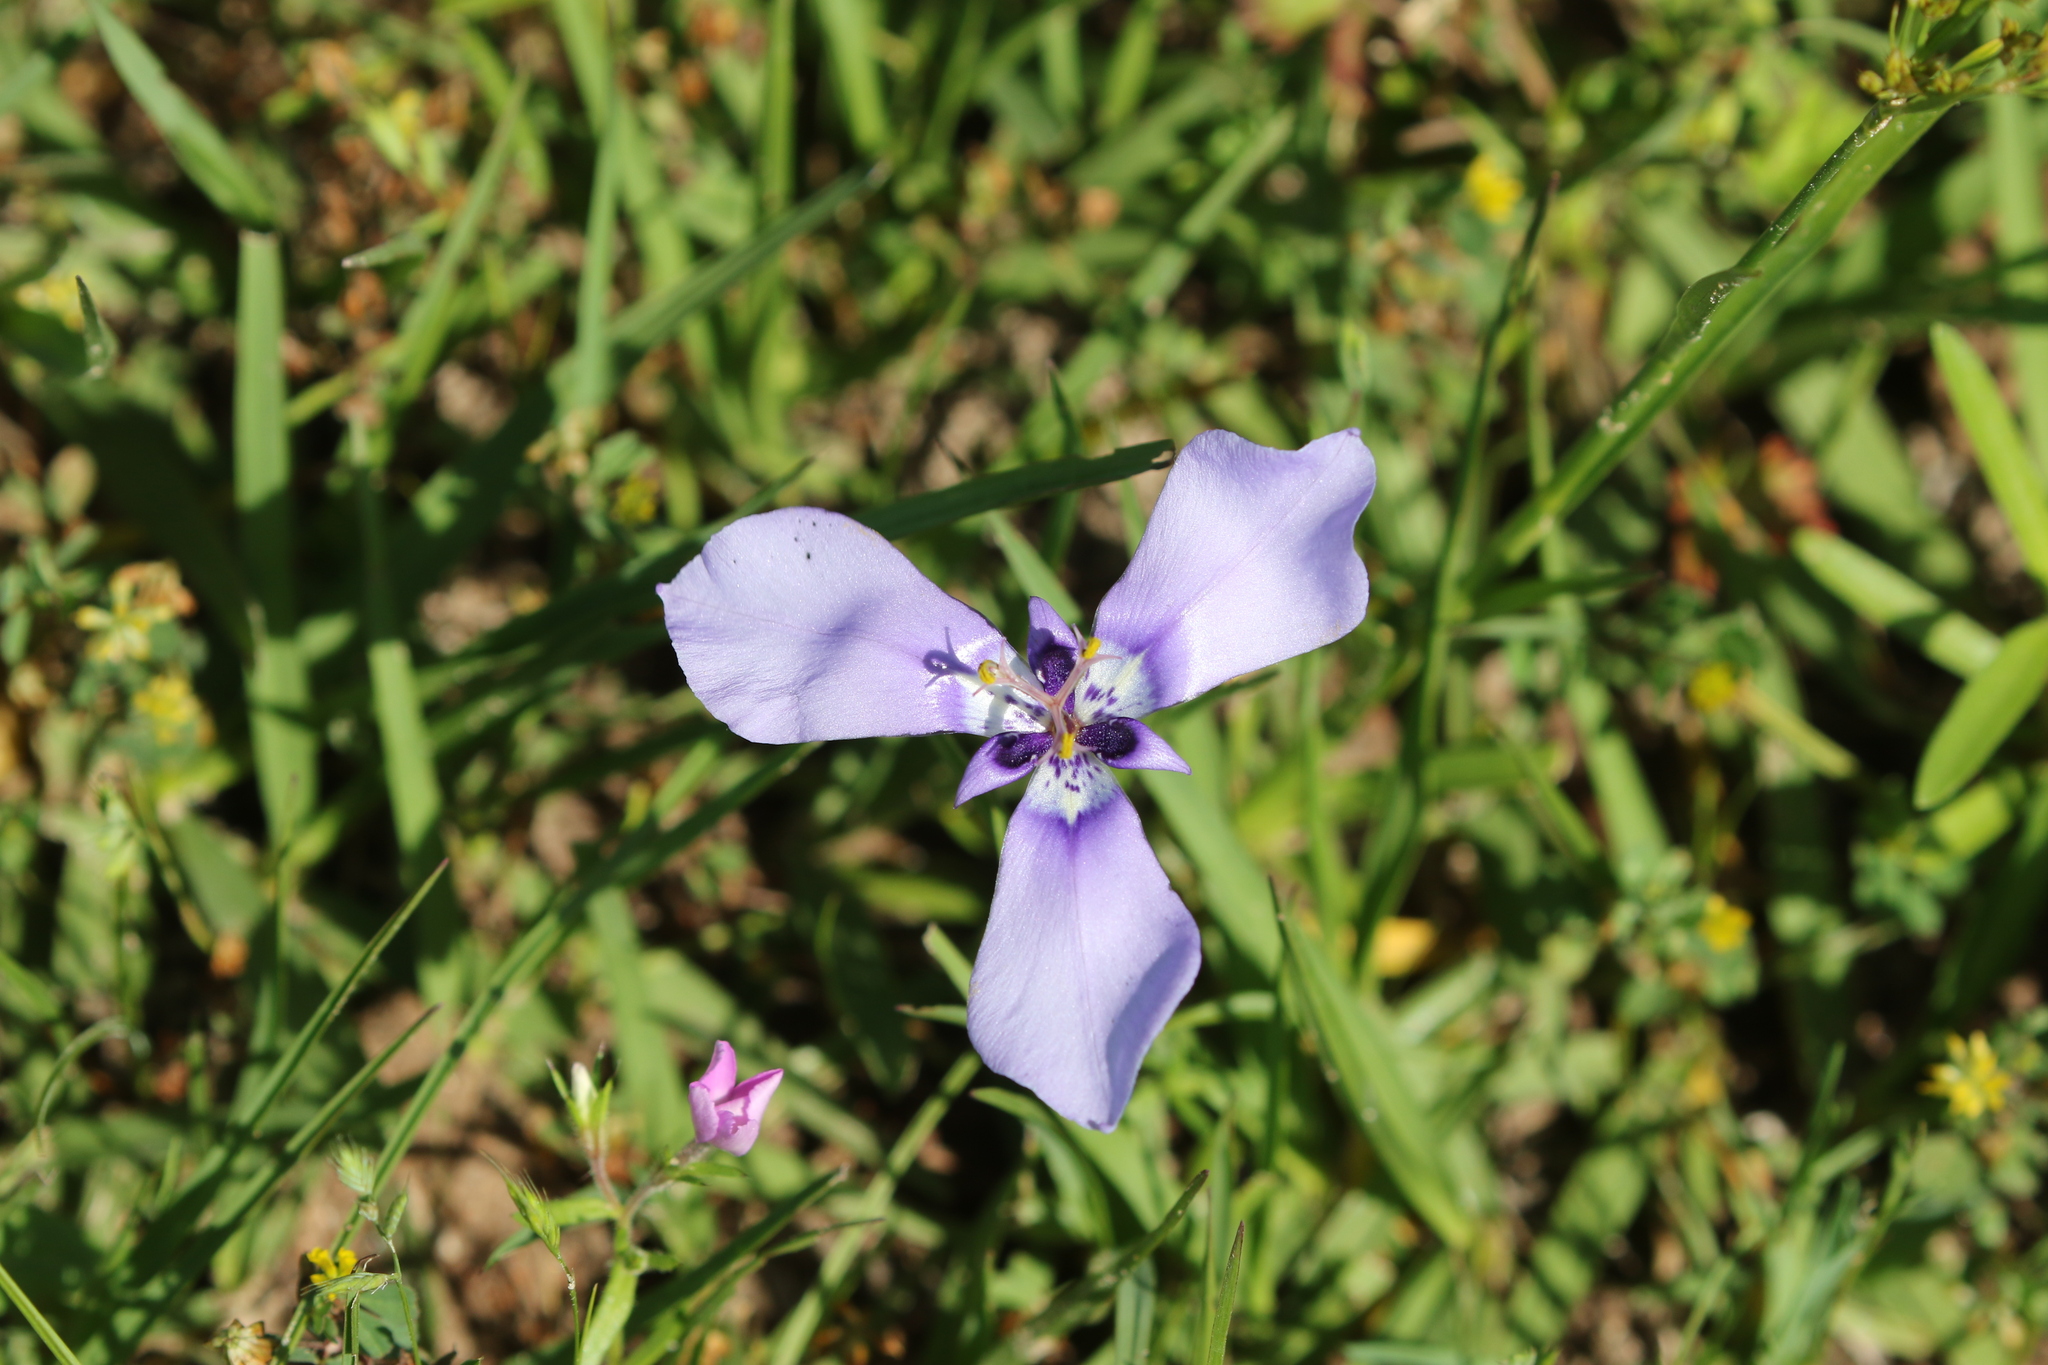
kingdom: Plantae
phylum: Tracheophyta
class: Liliopsida
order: Asparagales
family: Iridaceae
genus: Herbertia
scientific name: Herbertia lahue
